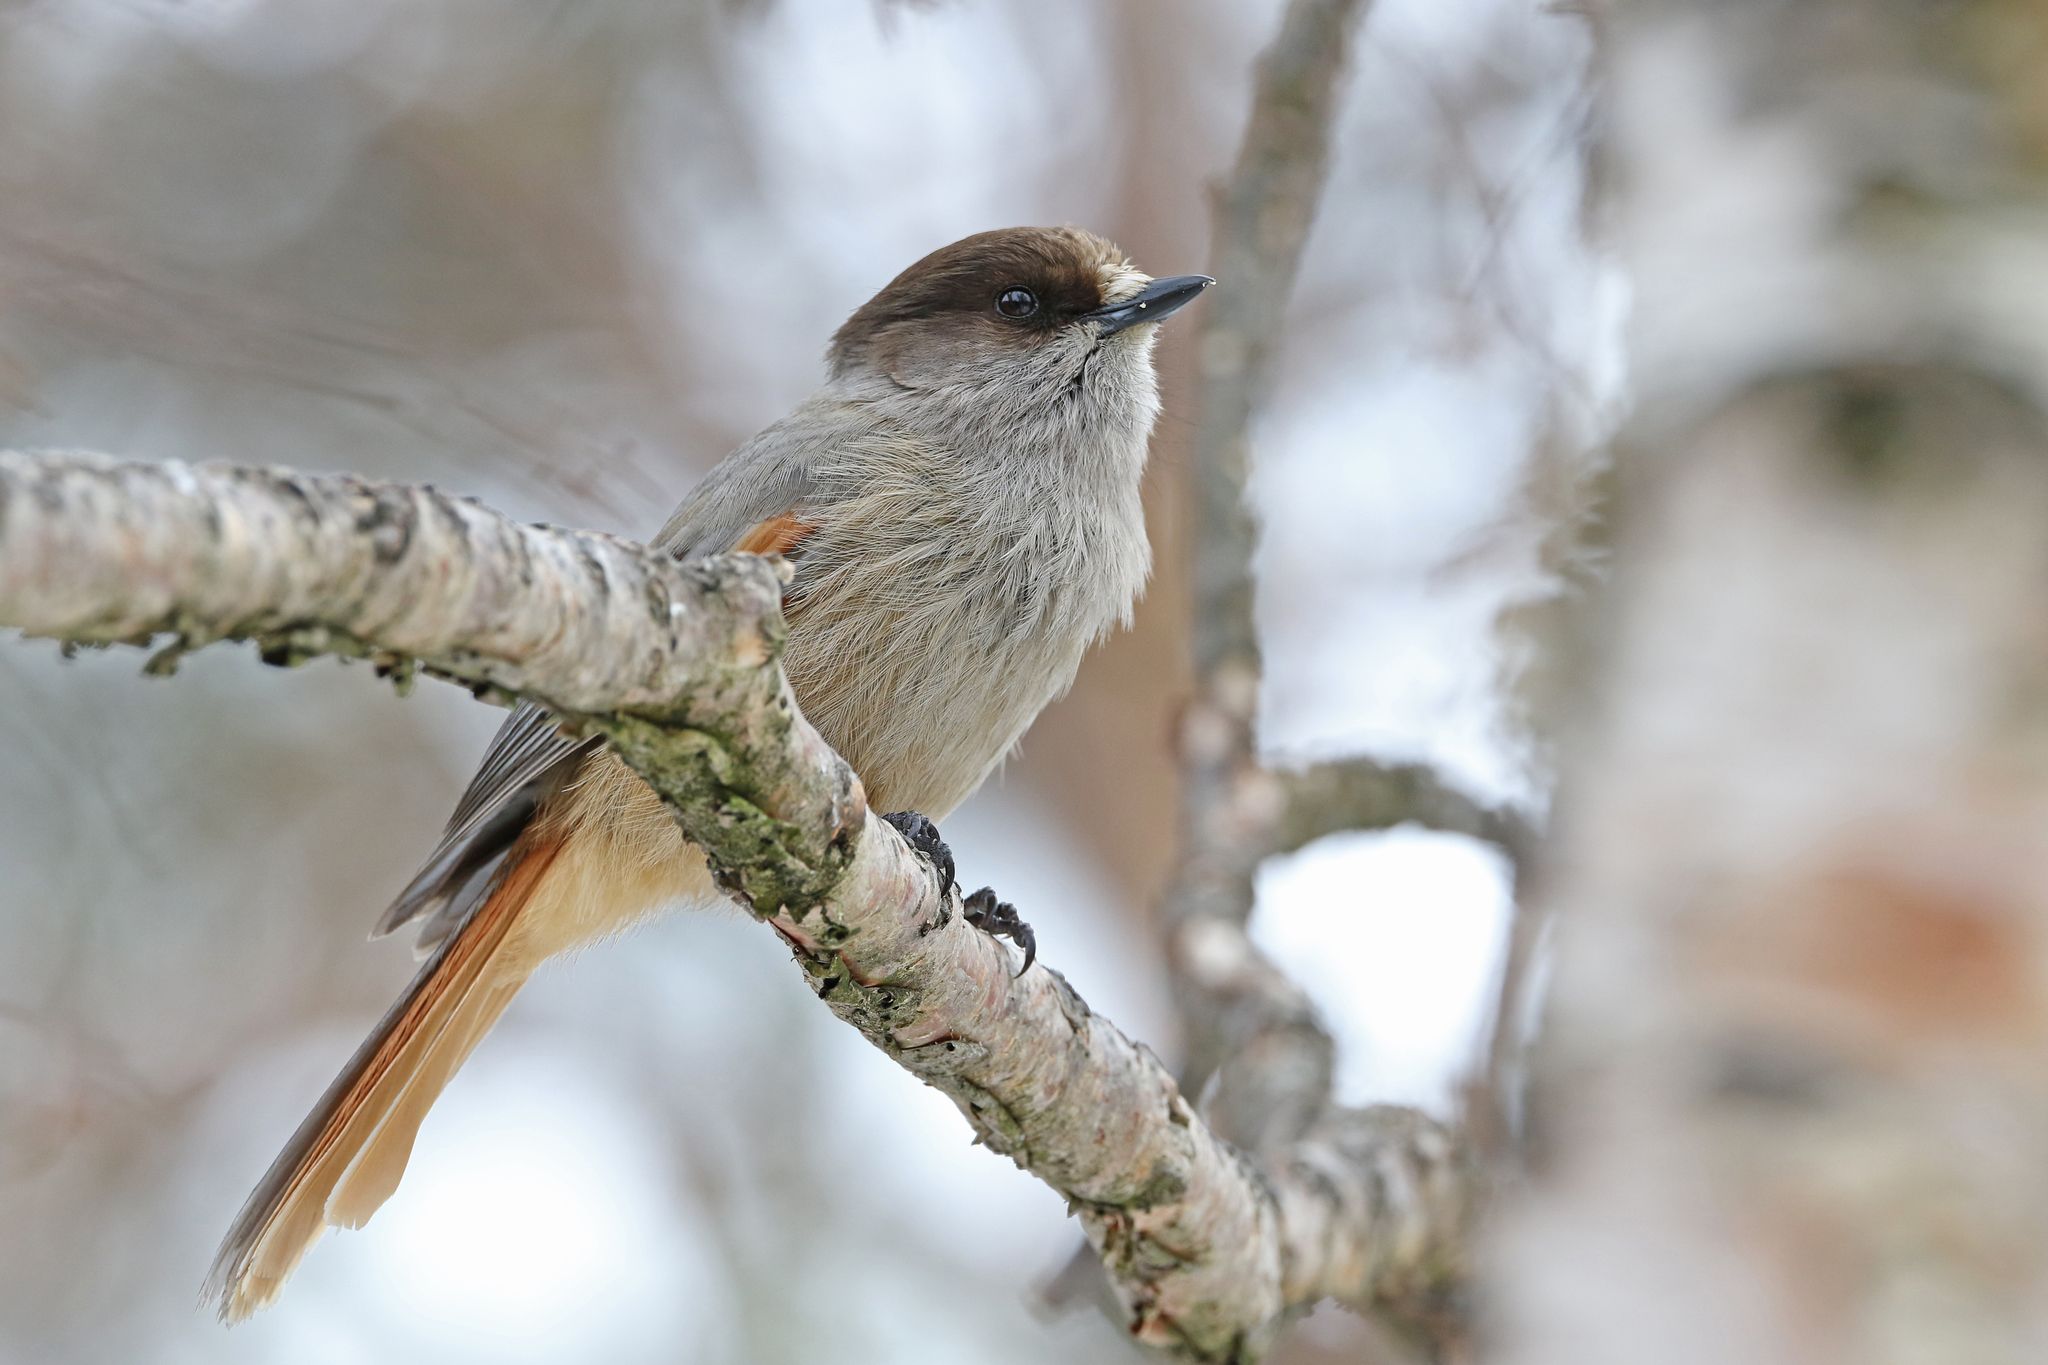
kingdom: Animalia
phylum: Chordata
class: Aves
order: Passeriformes
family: Corvidae
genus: Perisoreus
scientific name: Perisoreus infaustus
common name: Siberian jay
